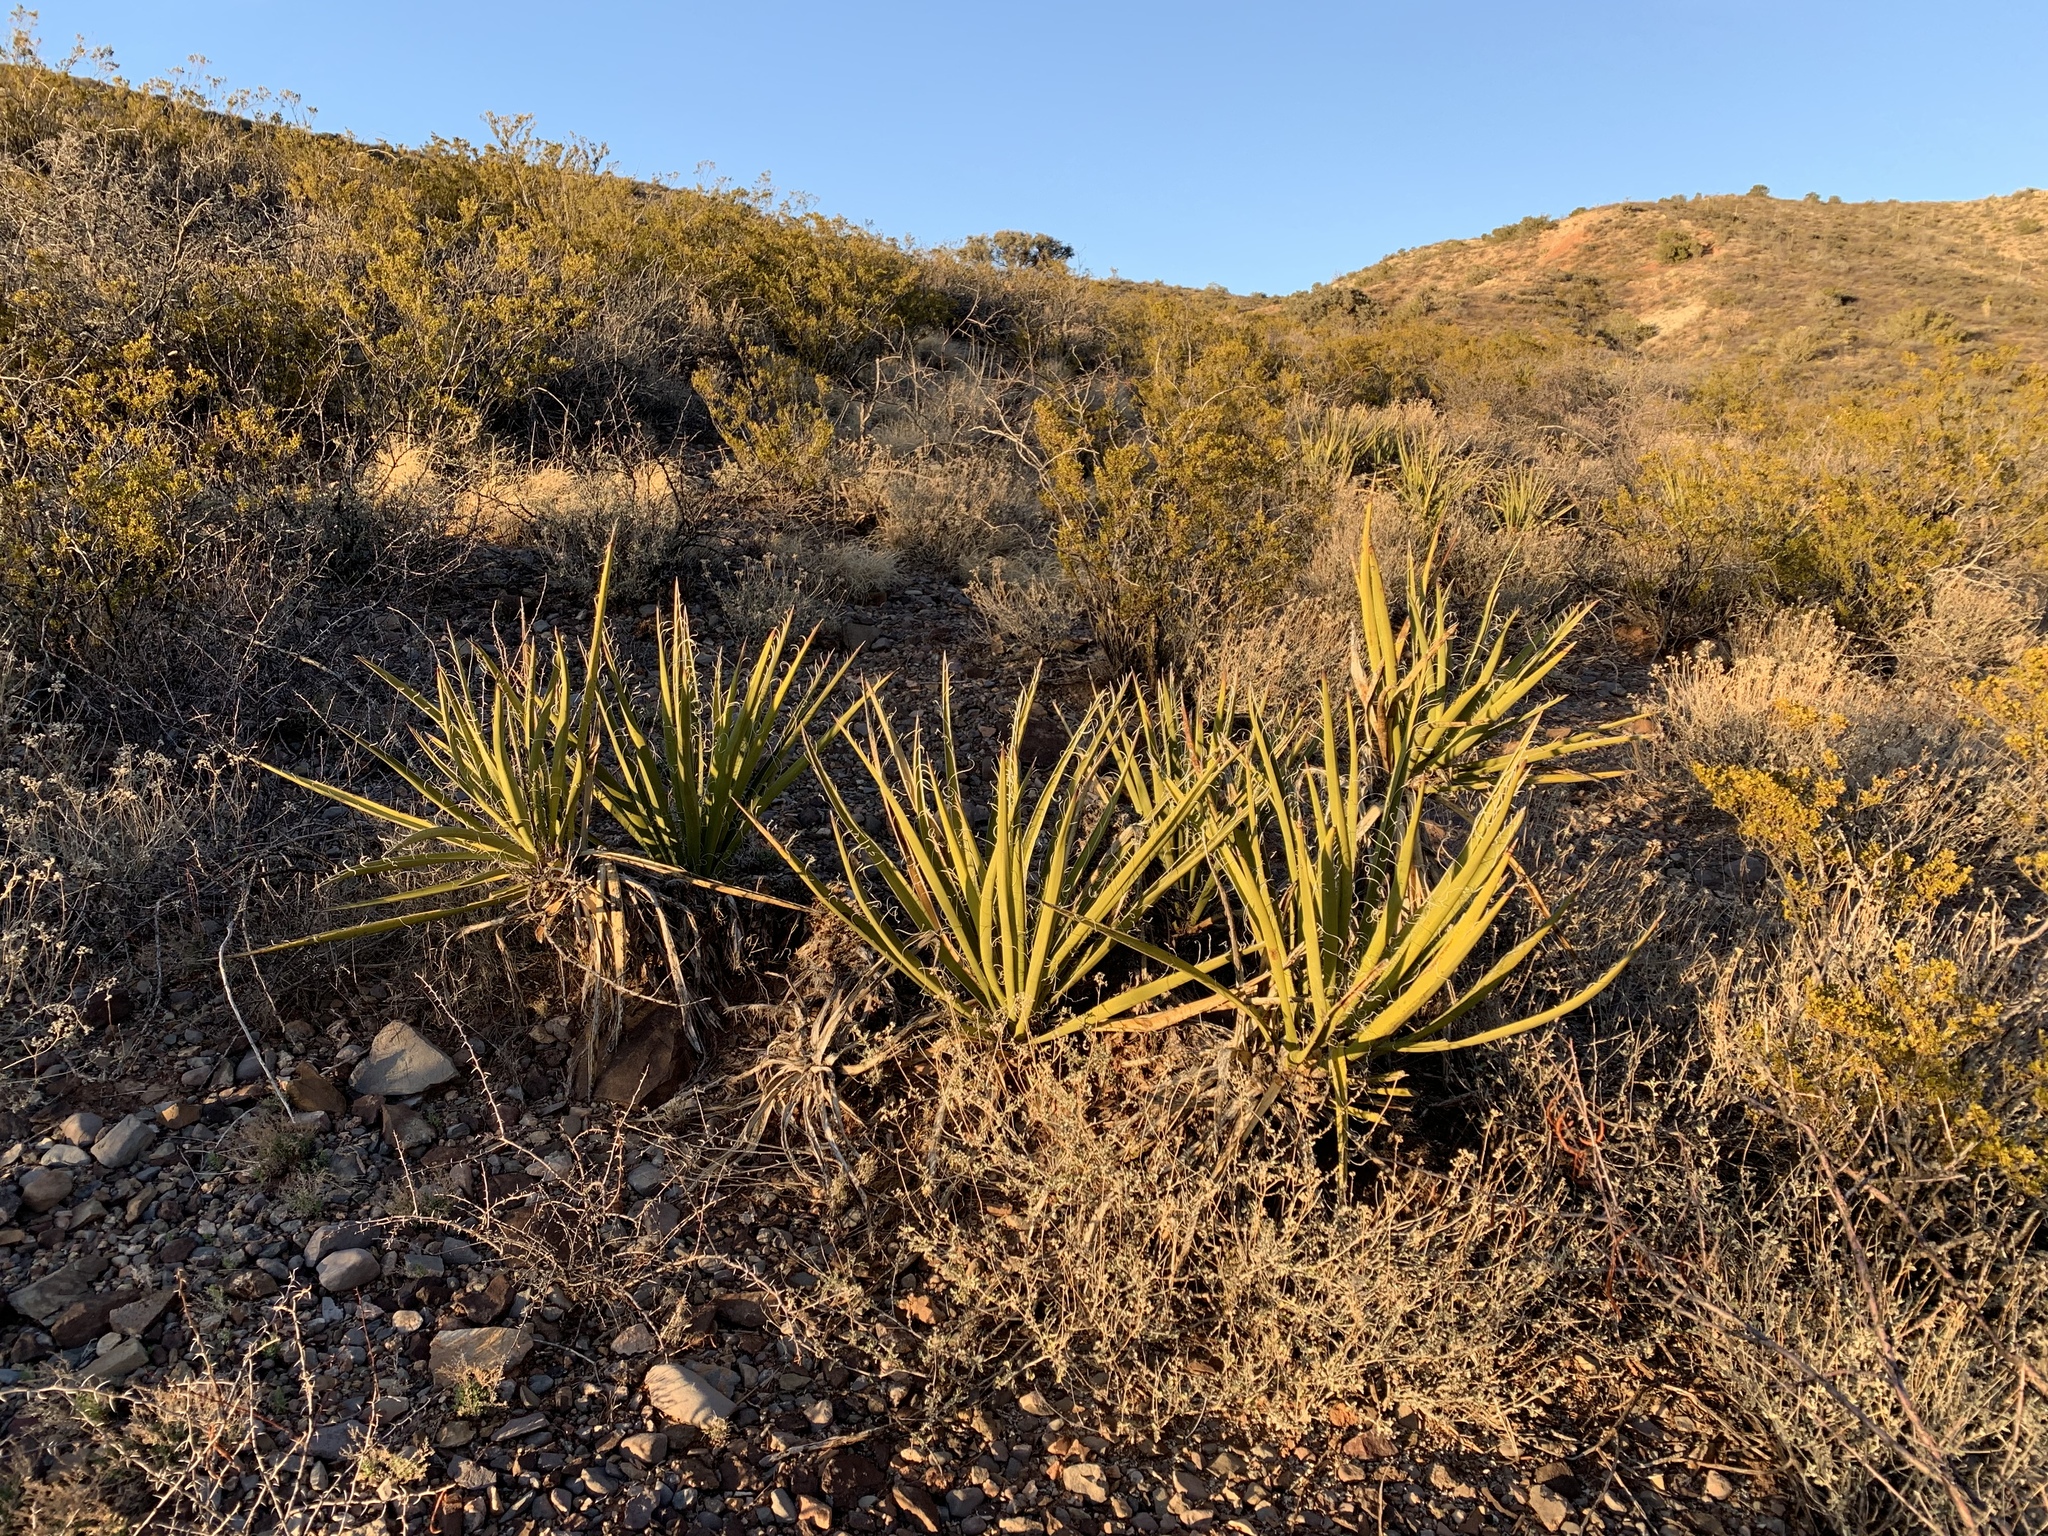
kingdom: Plantae
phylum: Tracheophyta
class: Liliopsida
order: Asparagales
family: Asparagaceae
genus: Yucca
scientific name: Yucca baccata
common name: Banana yucca
